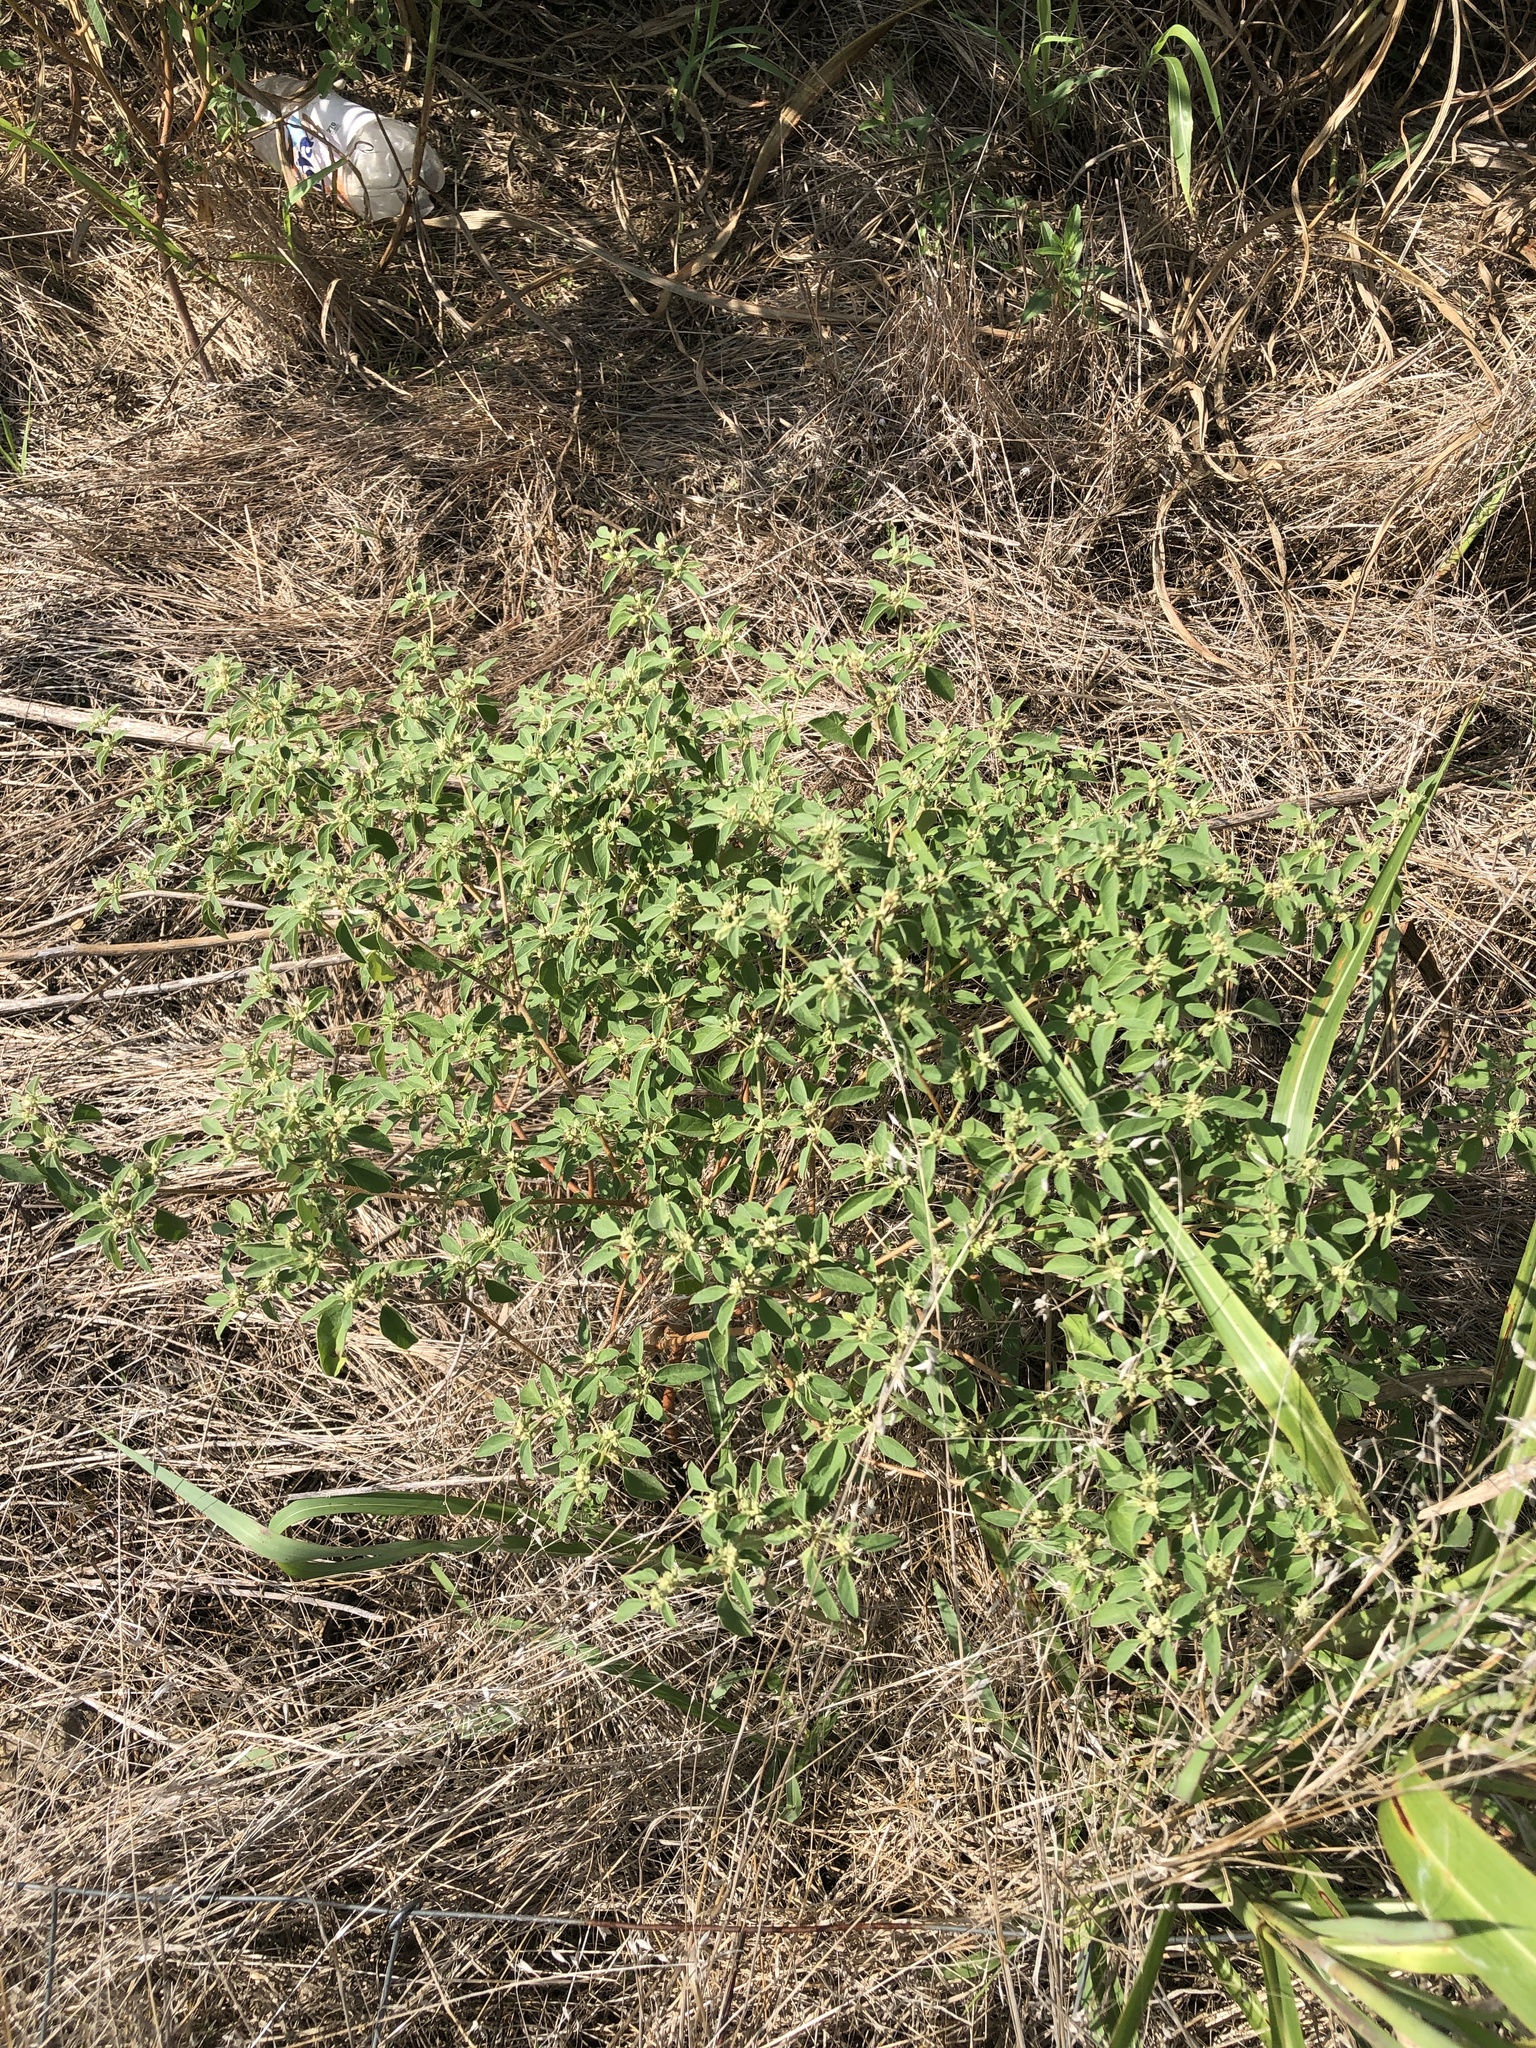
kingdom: Plantae
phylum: Tracheophyta
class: Magnoliopsida
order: Malpighiales
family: Euphorbiaceae
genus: Croton
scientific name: Croton monanthogynus
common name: One-seed croton
